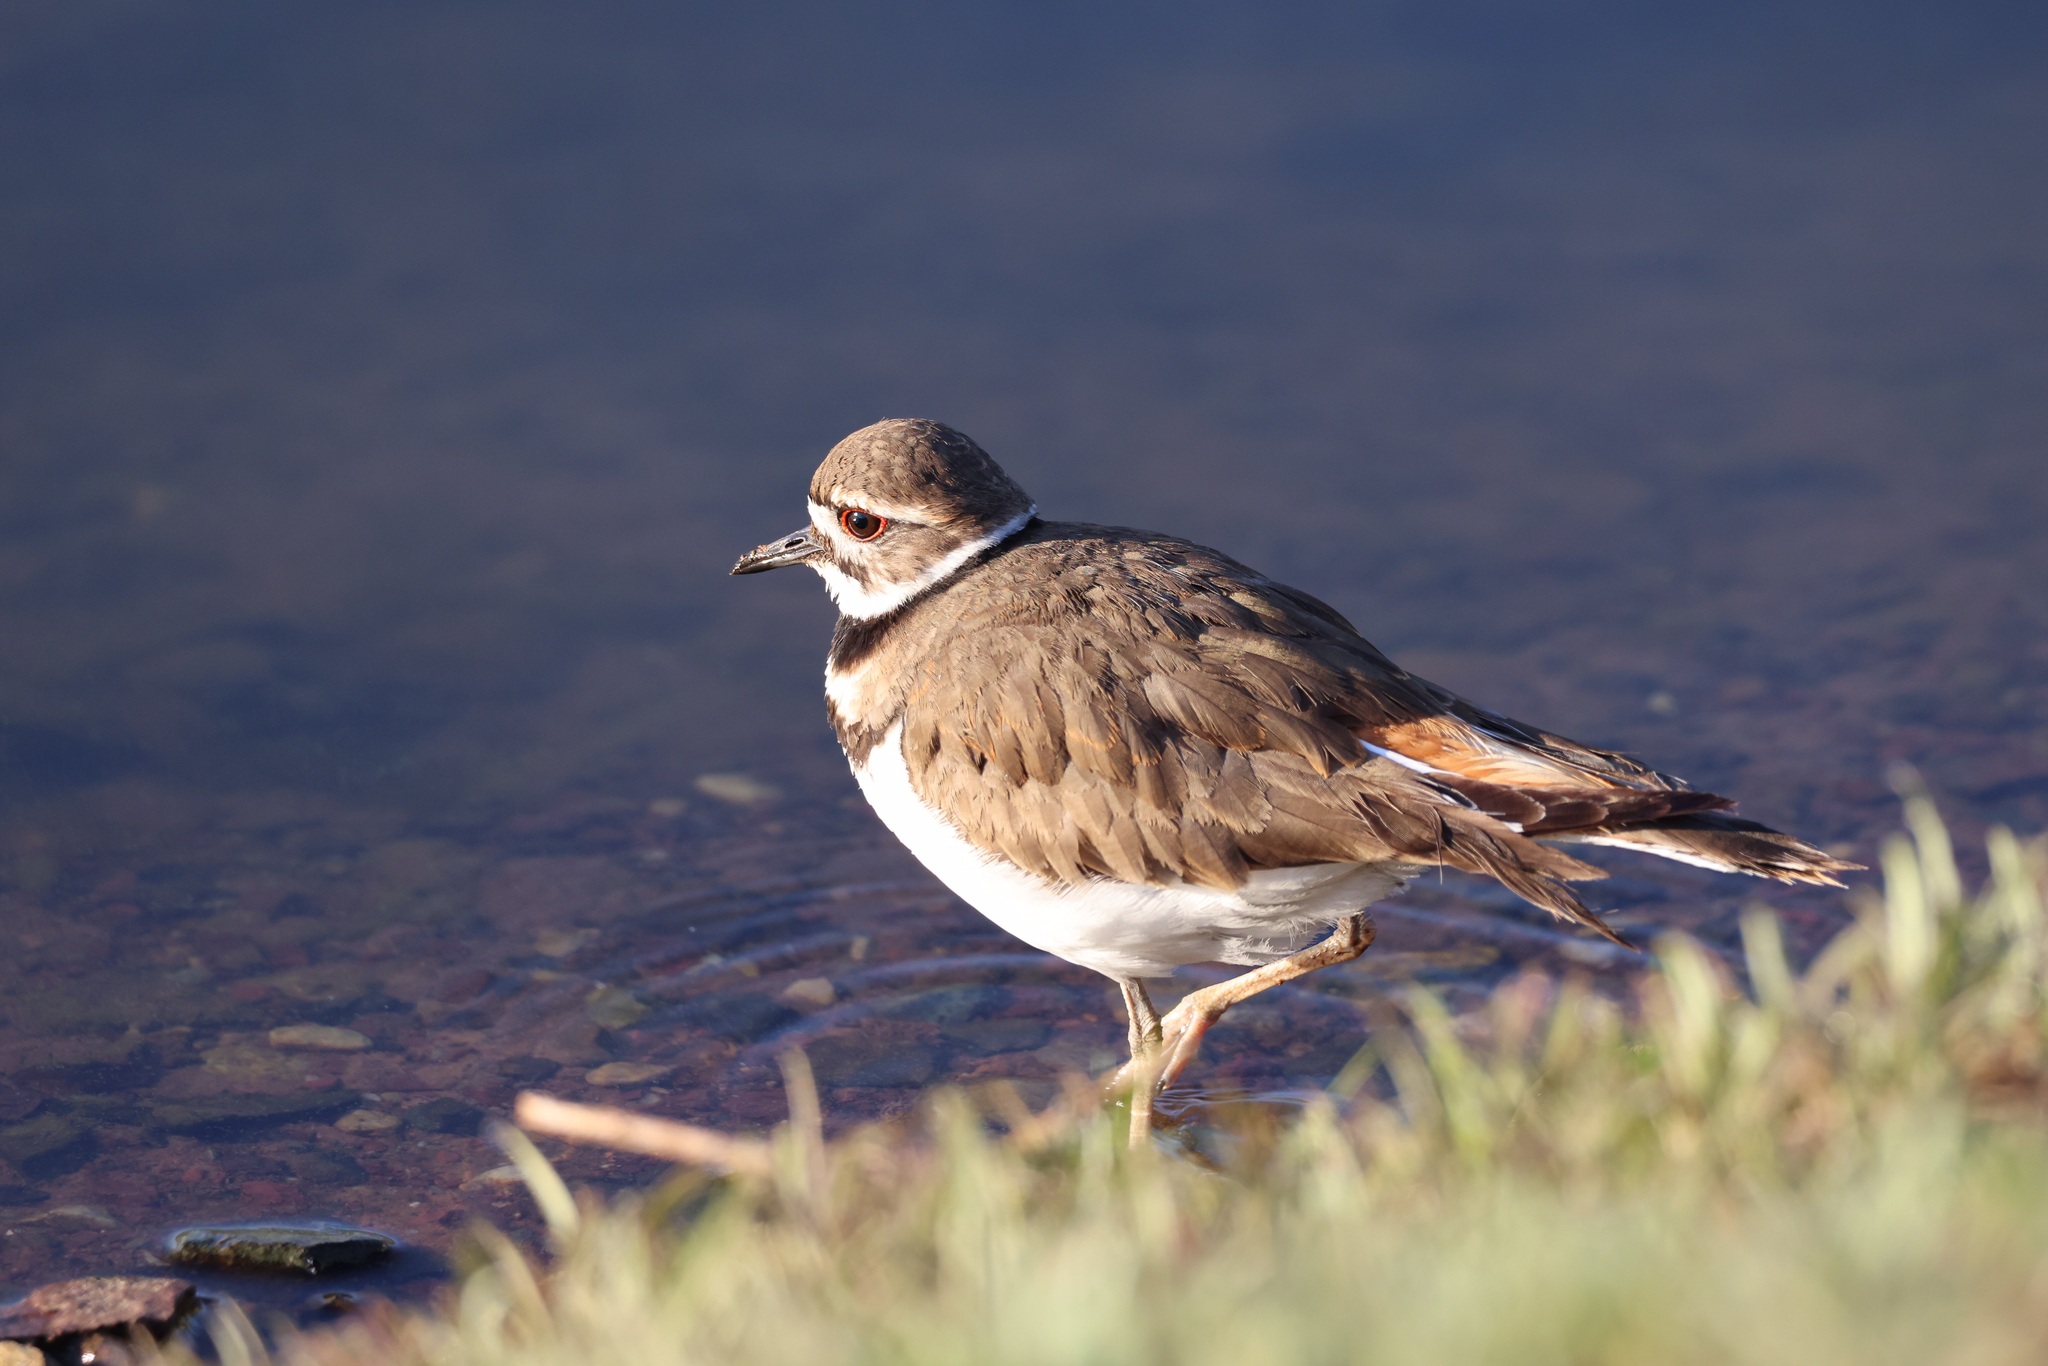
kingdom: Animalia
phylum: Chordata
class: Aves
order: Charadriiformes
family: Charadriidae
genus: Charadrius
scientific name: Charadrius vociferus
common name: Killdeer
